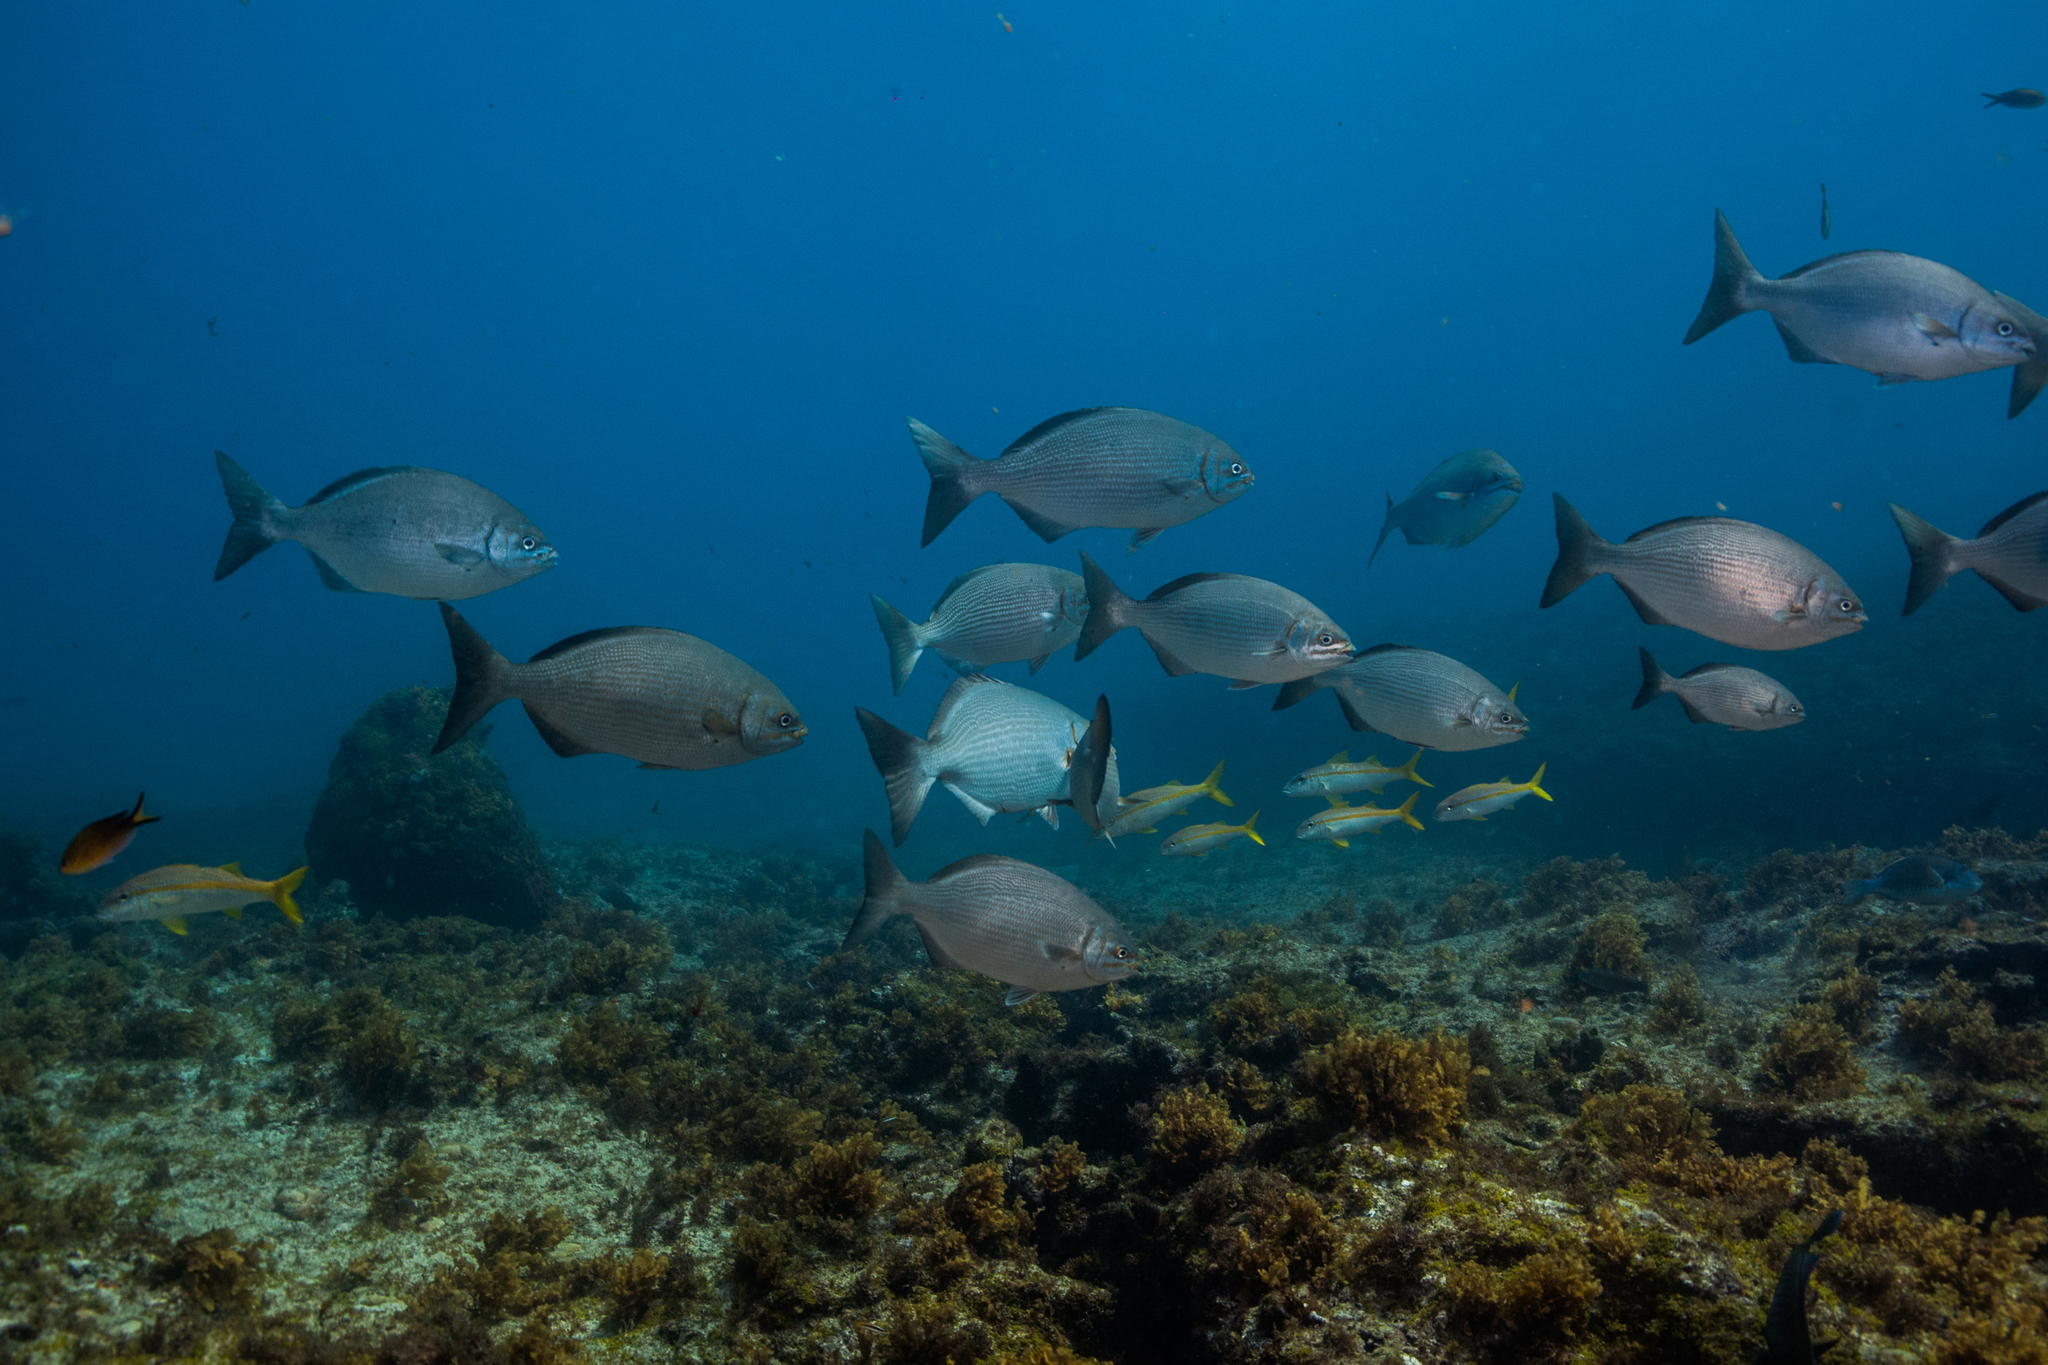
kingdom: Animalia
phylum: Chordata
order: Perciformes
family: Kyphosidae
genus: Kyphosus
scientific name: Kyphosus vaigiensis
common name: Brassy chub
